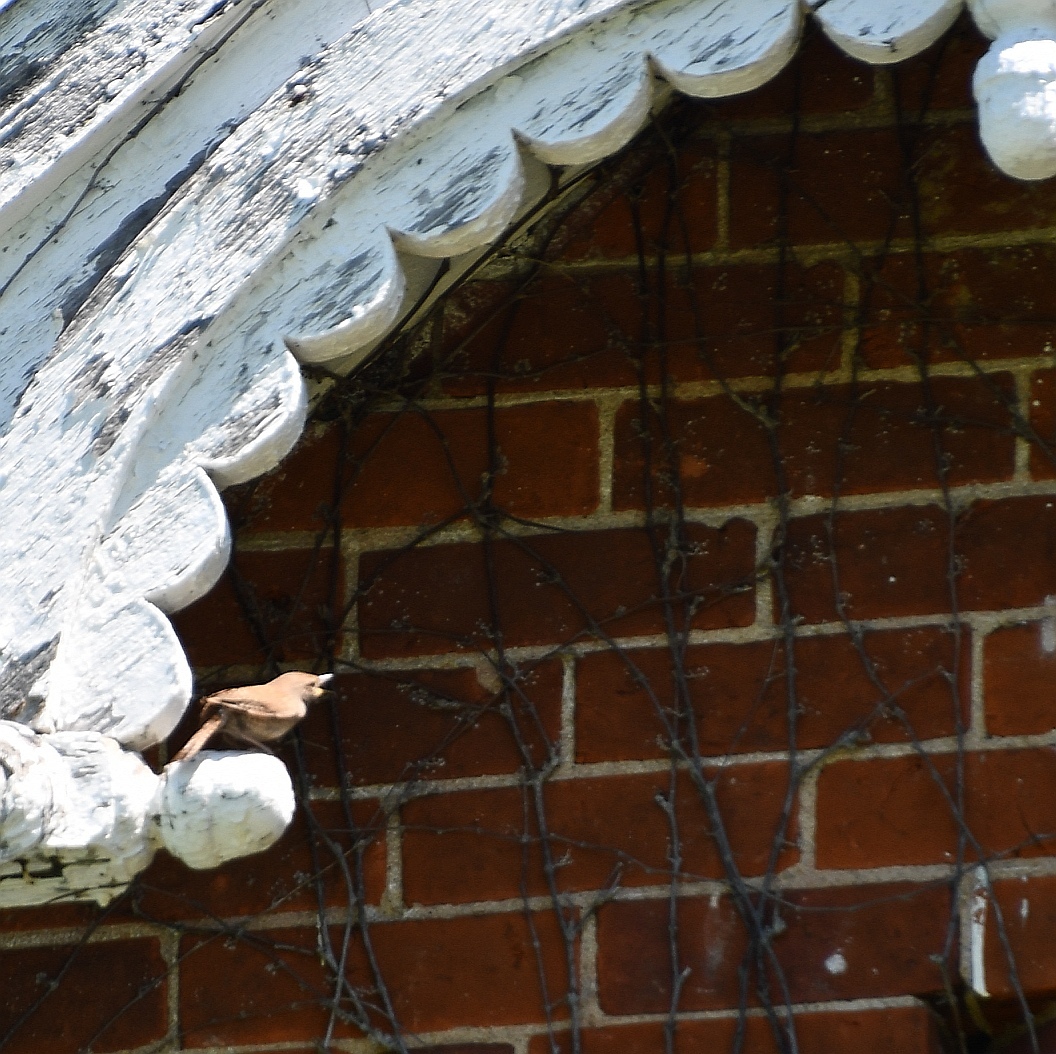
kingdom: Animalia
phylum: Chordata
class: Aves
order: Passeriformes
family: Troglodytidae
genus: Troglodytes
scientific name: Troglodytes aedon
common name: House wren
